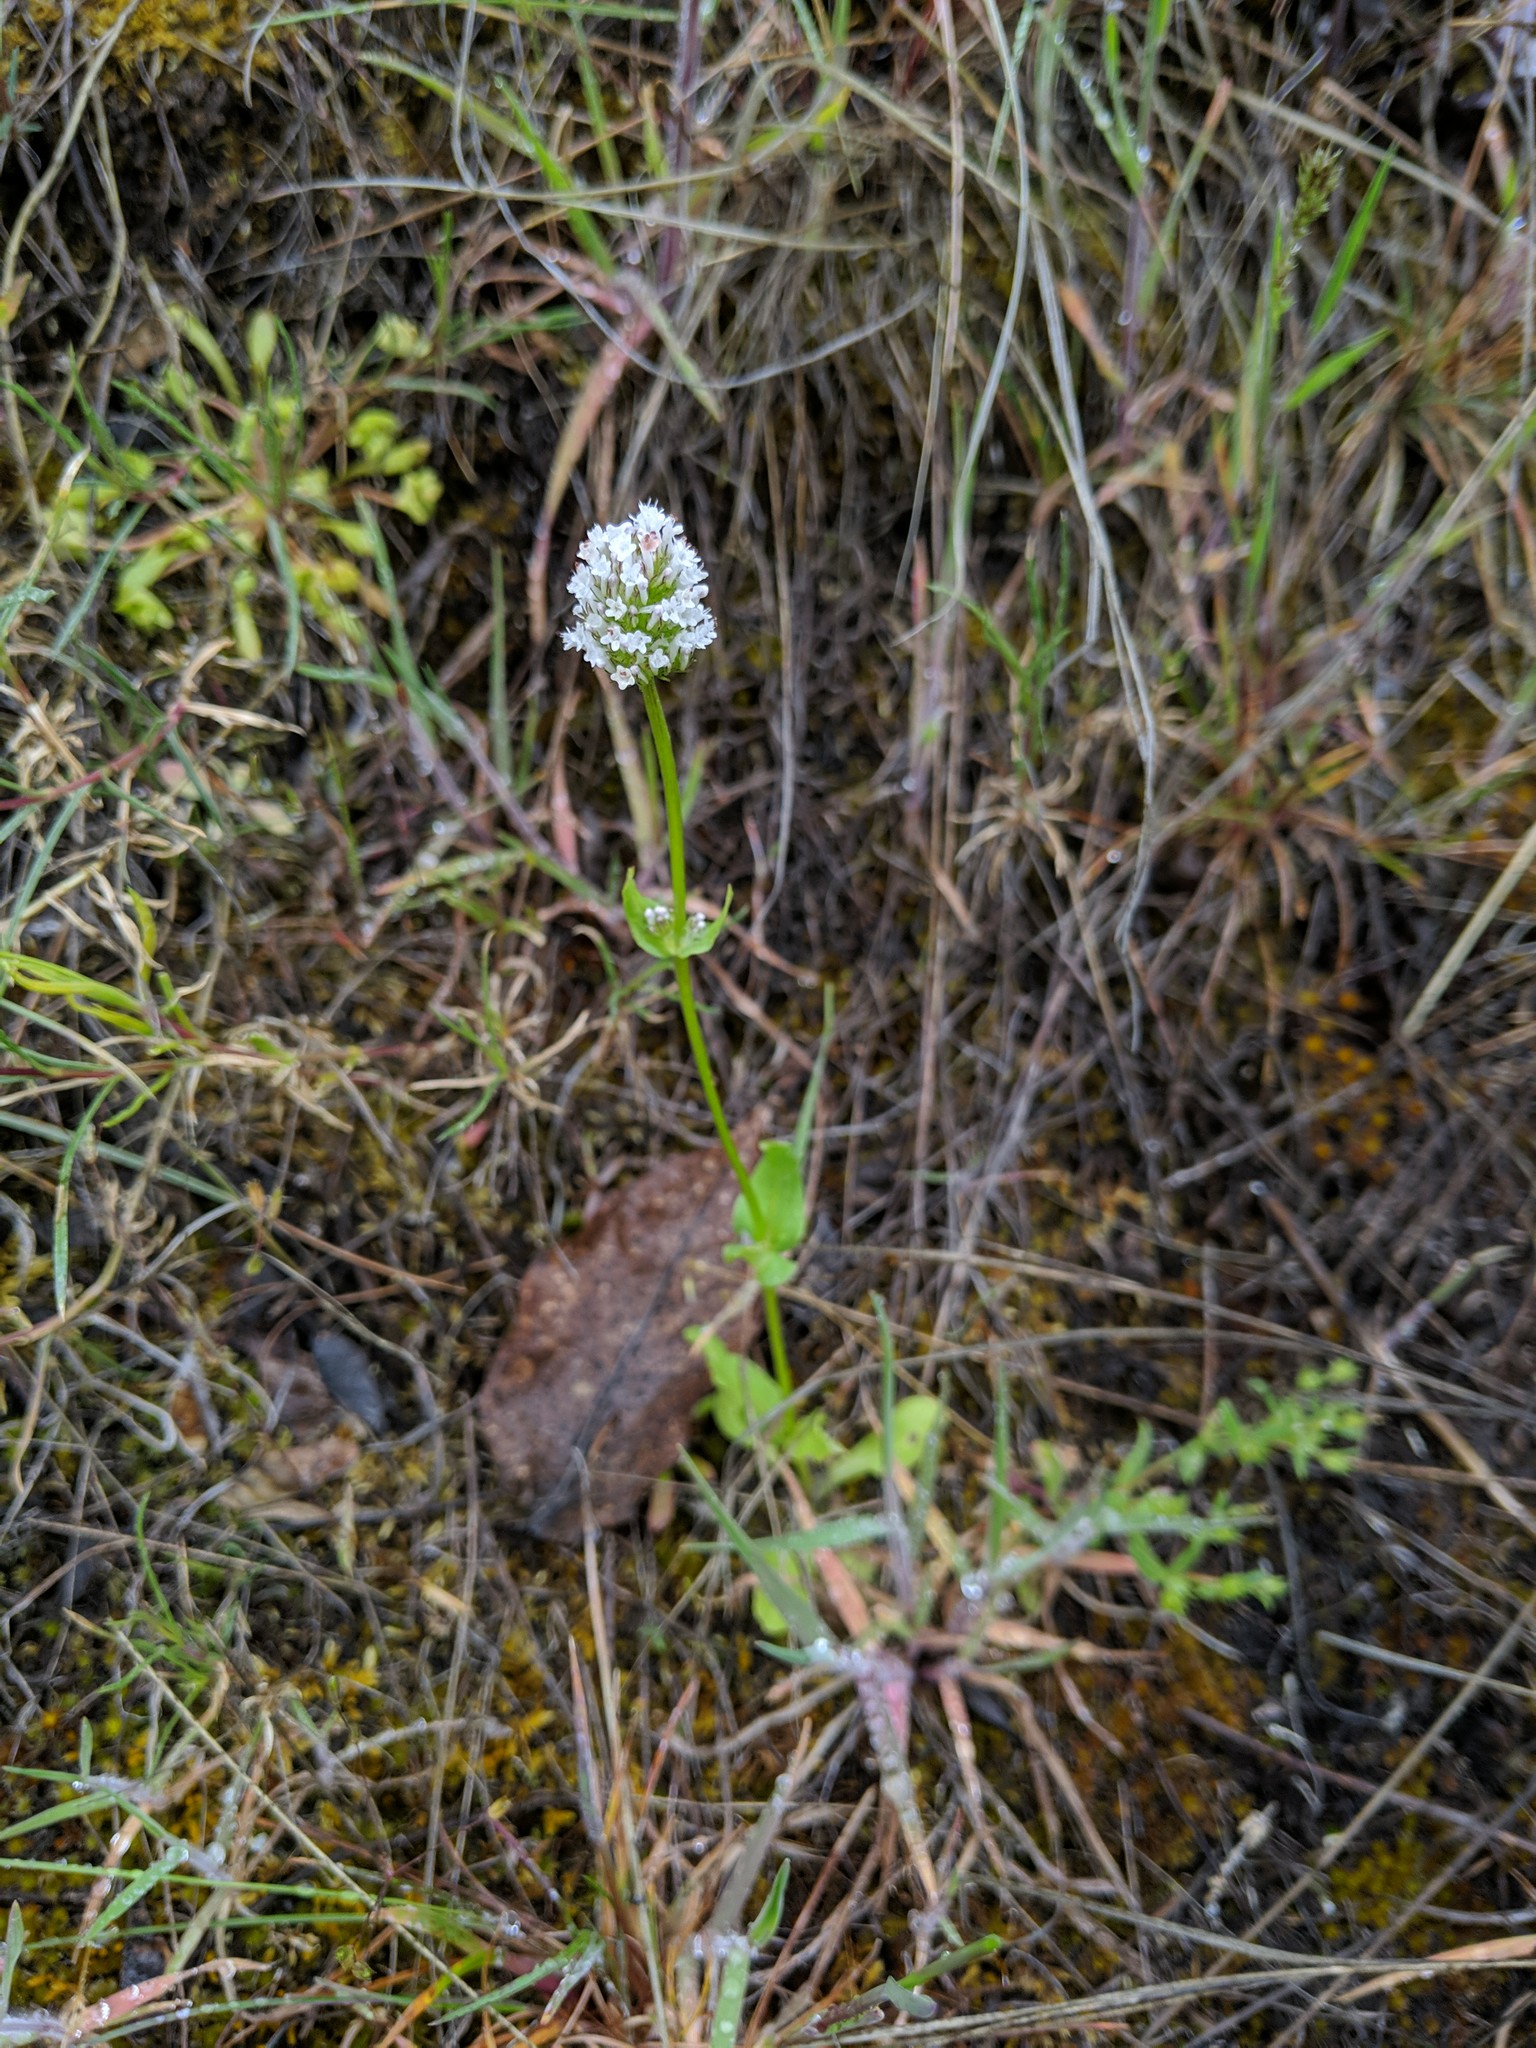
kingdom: Plantae
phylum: Tracheophyta
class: Magnoliopsida
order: Dipsacales
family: Caprifoliaceae
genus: Plectritis
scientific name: Plectritis macroptera
